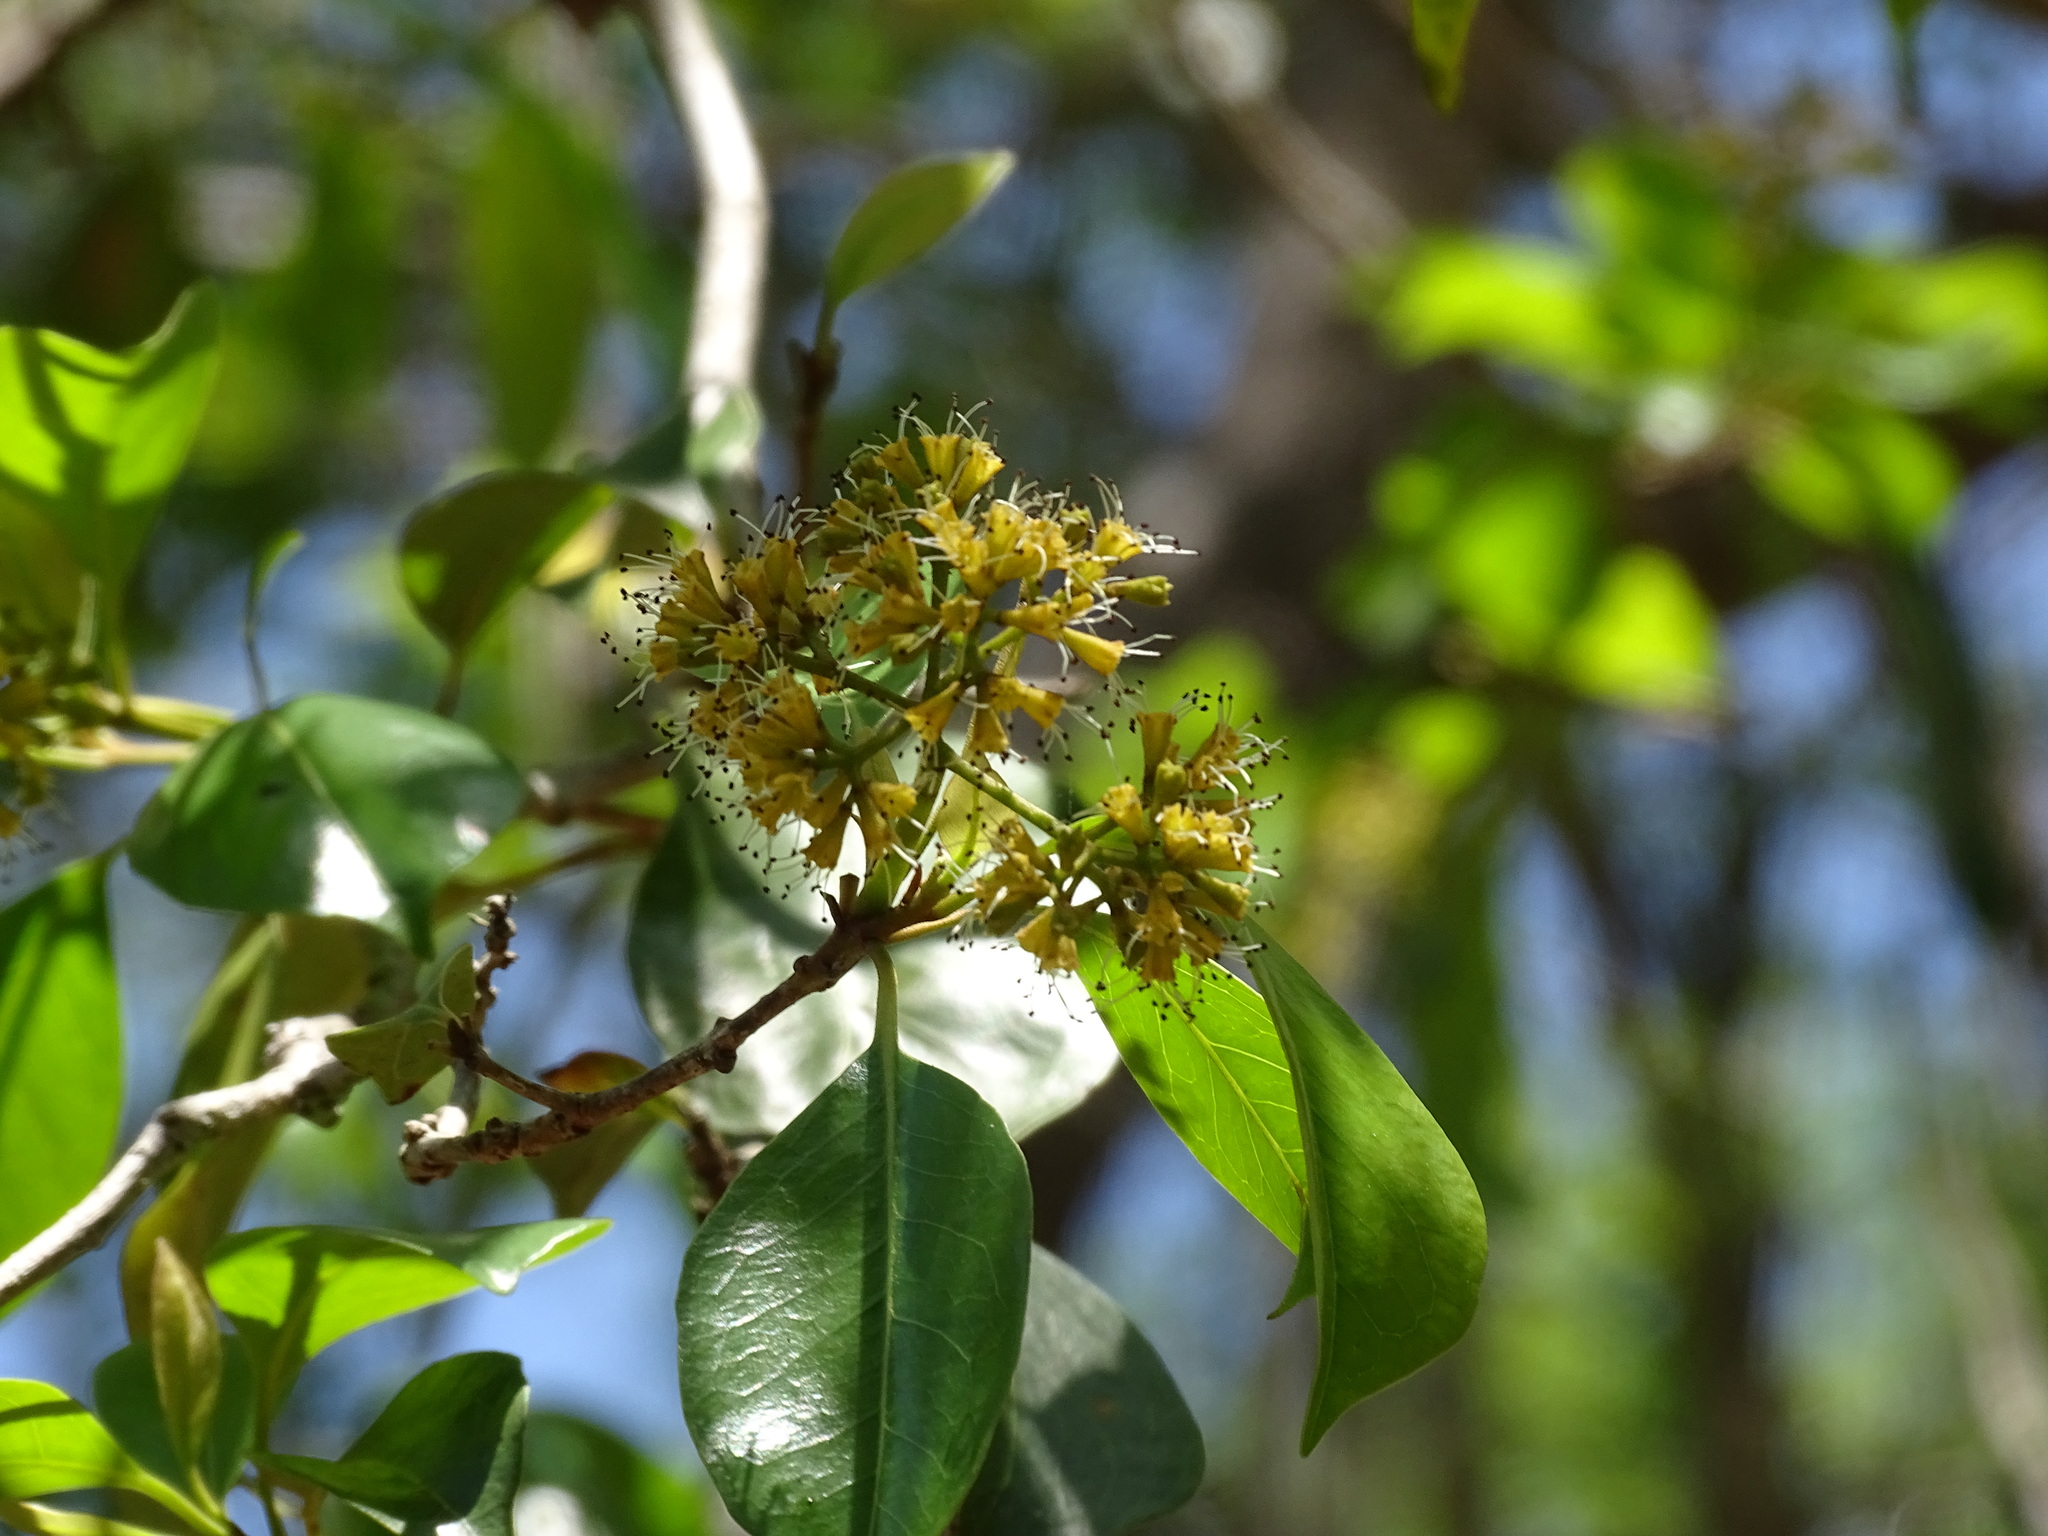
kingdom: Plantae
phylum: Tracheophyta
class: Magnoliopsida
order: Caryophyllales
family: Nyctaginaceae
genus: Guapira
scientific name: Guapira costaricana
